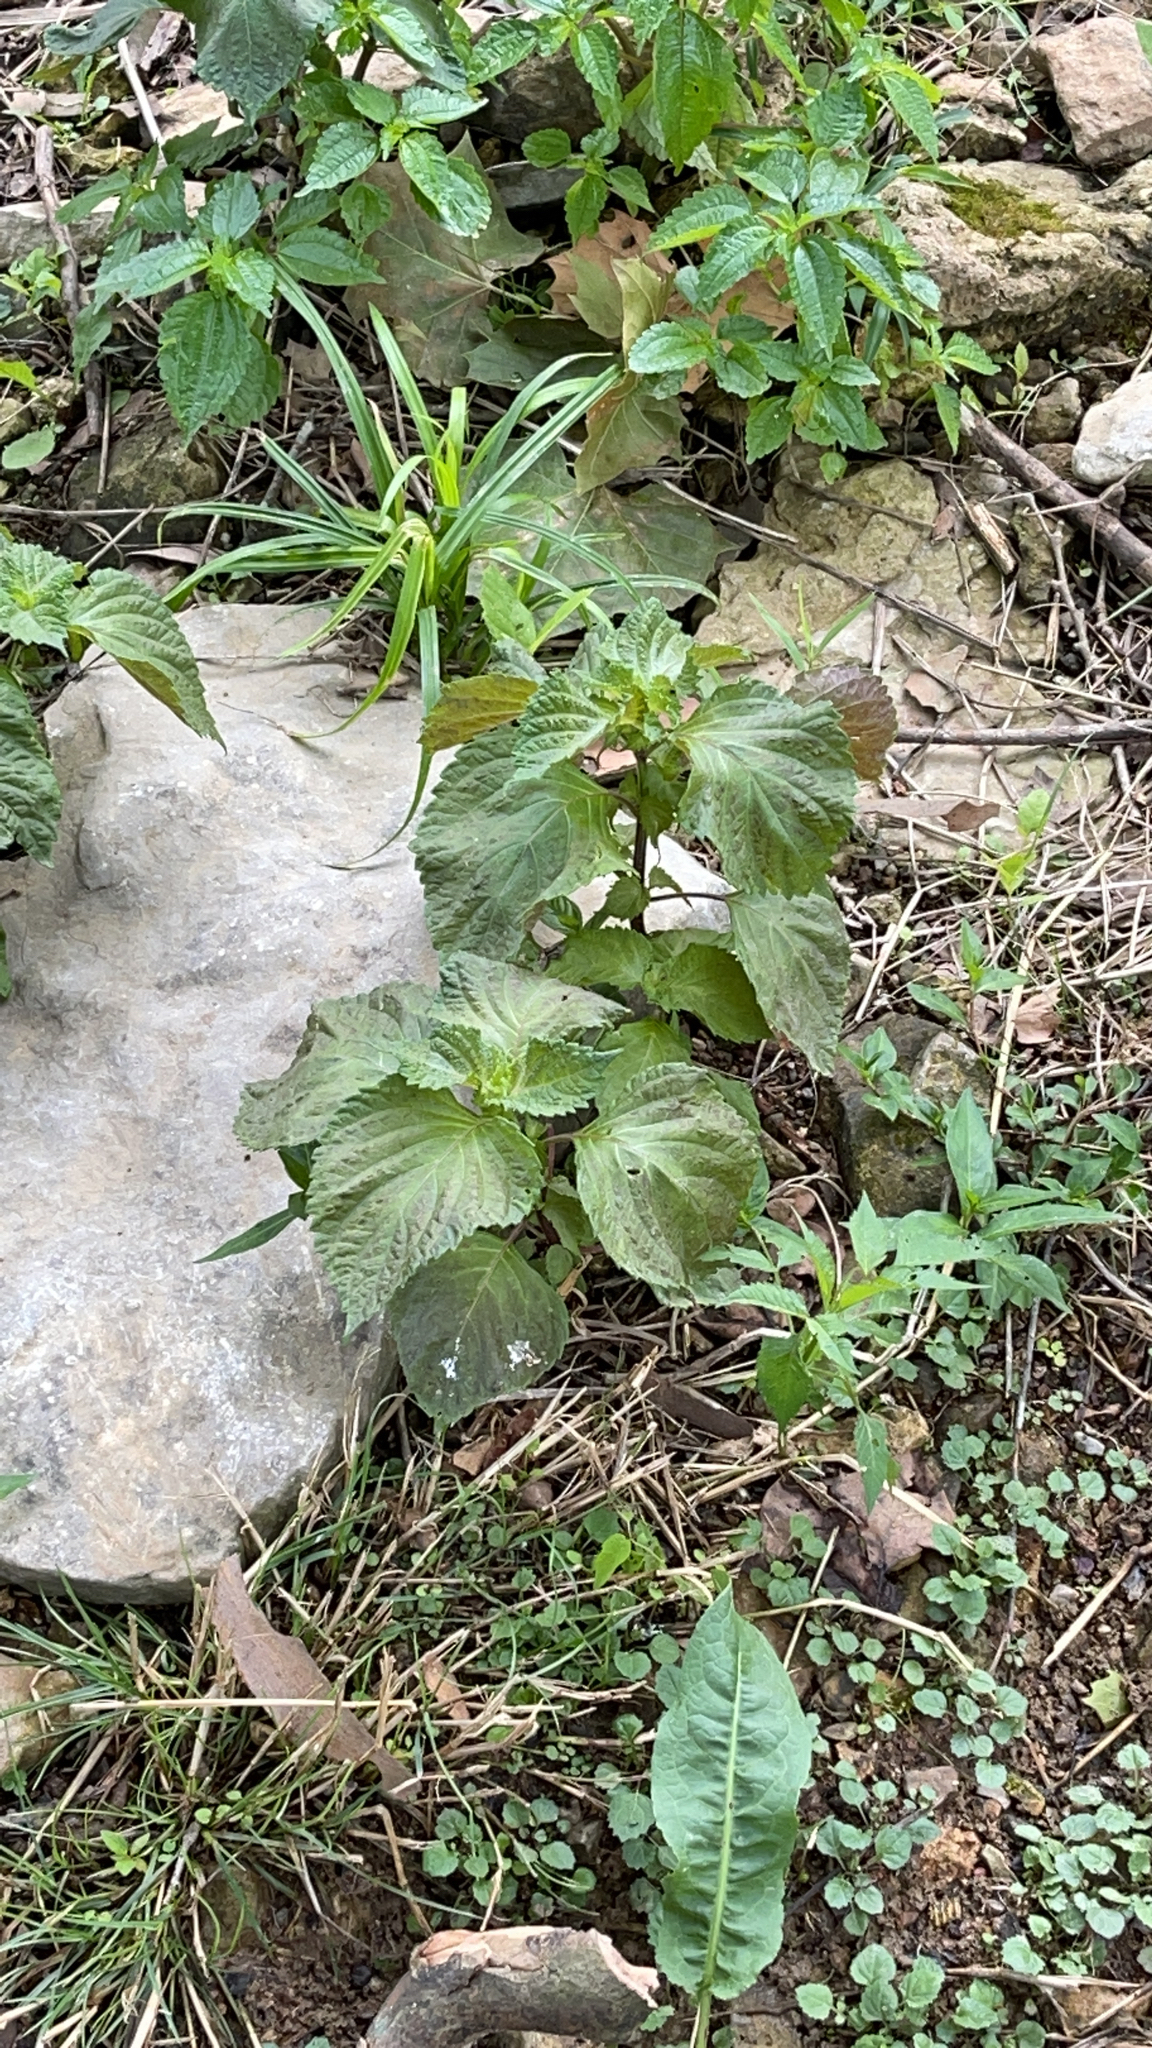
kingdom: Plantae
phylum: Tracheophyta
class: Magnoliopsida
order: Lamiales
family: Lamiaceae
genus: Perilla
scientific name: Perilla frutescens
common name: Perilla
